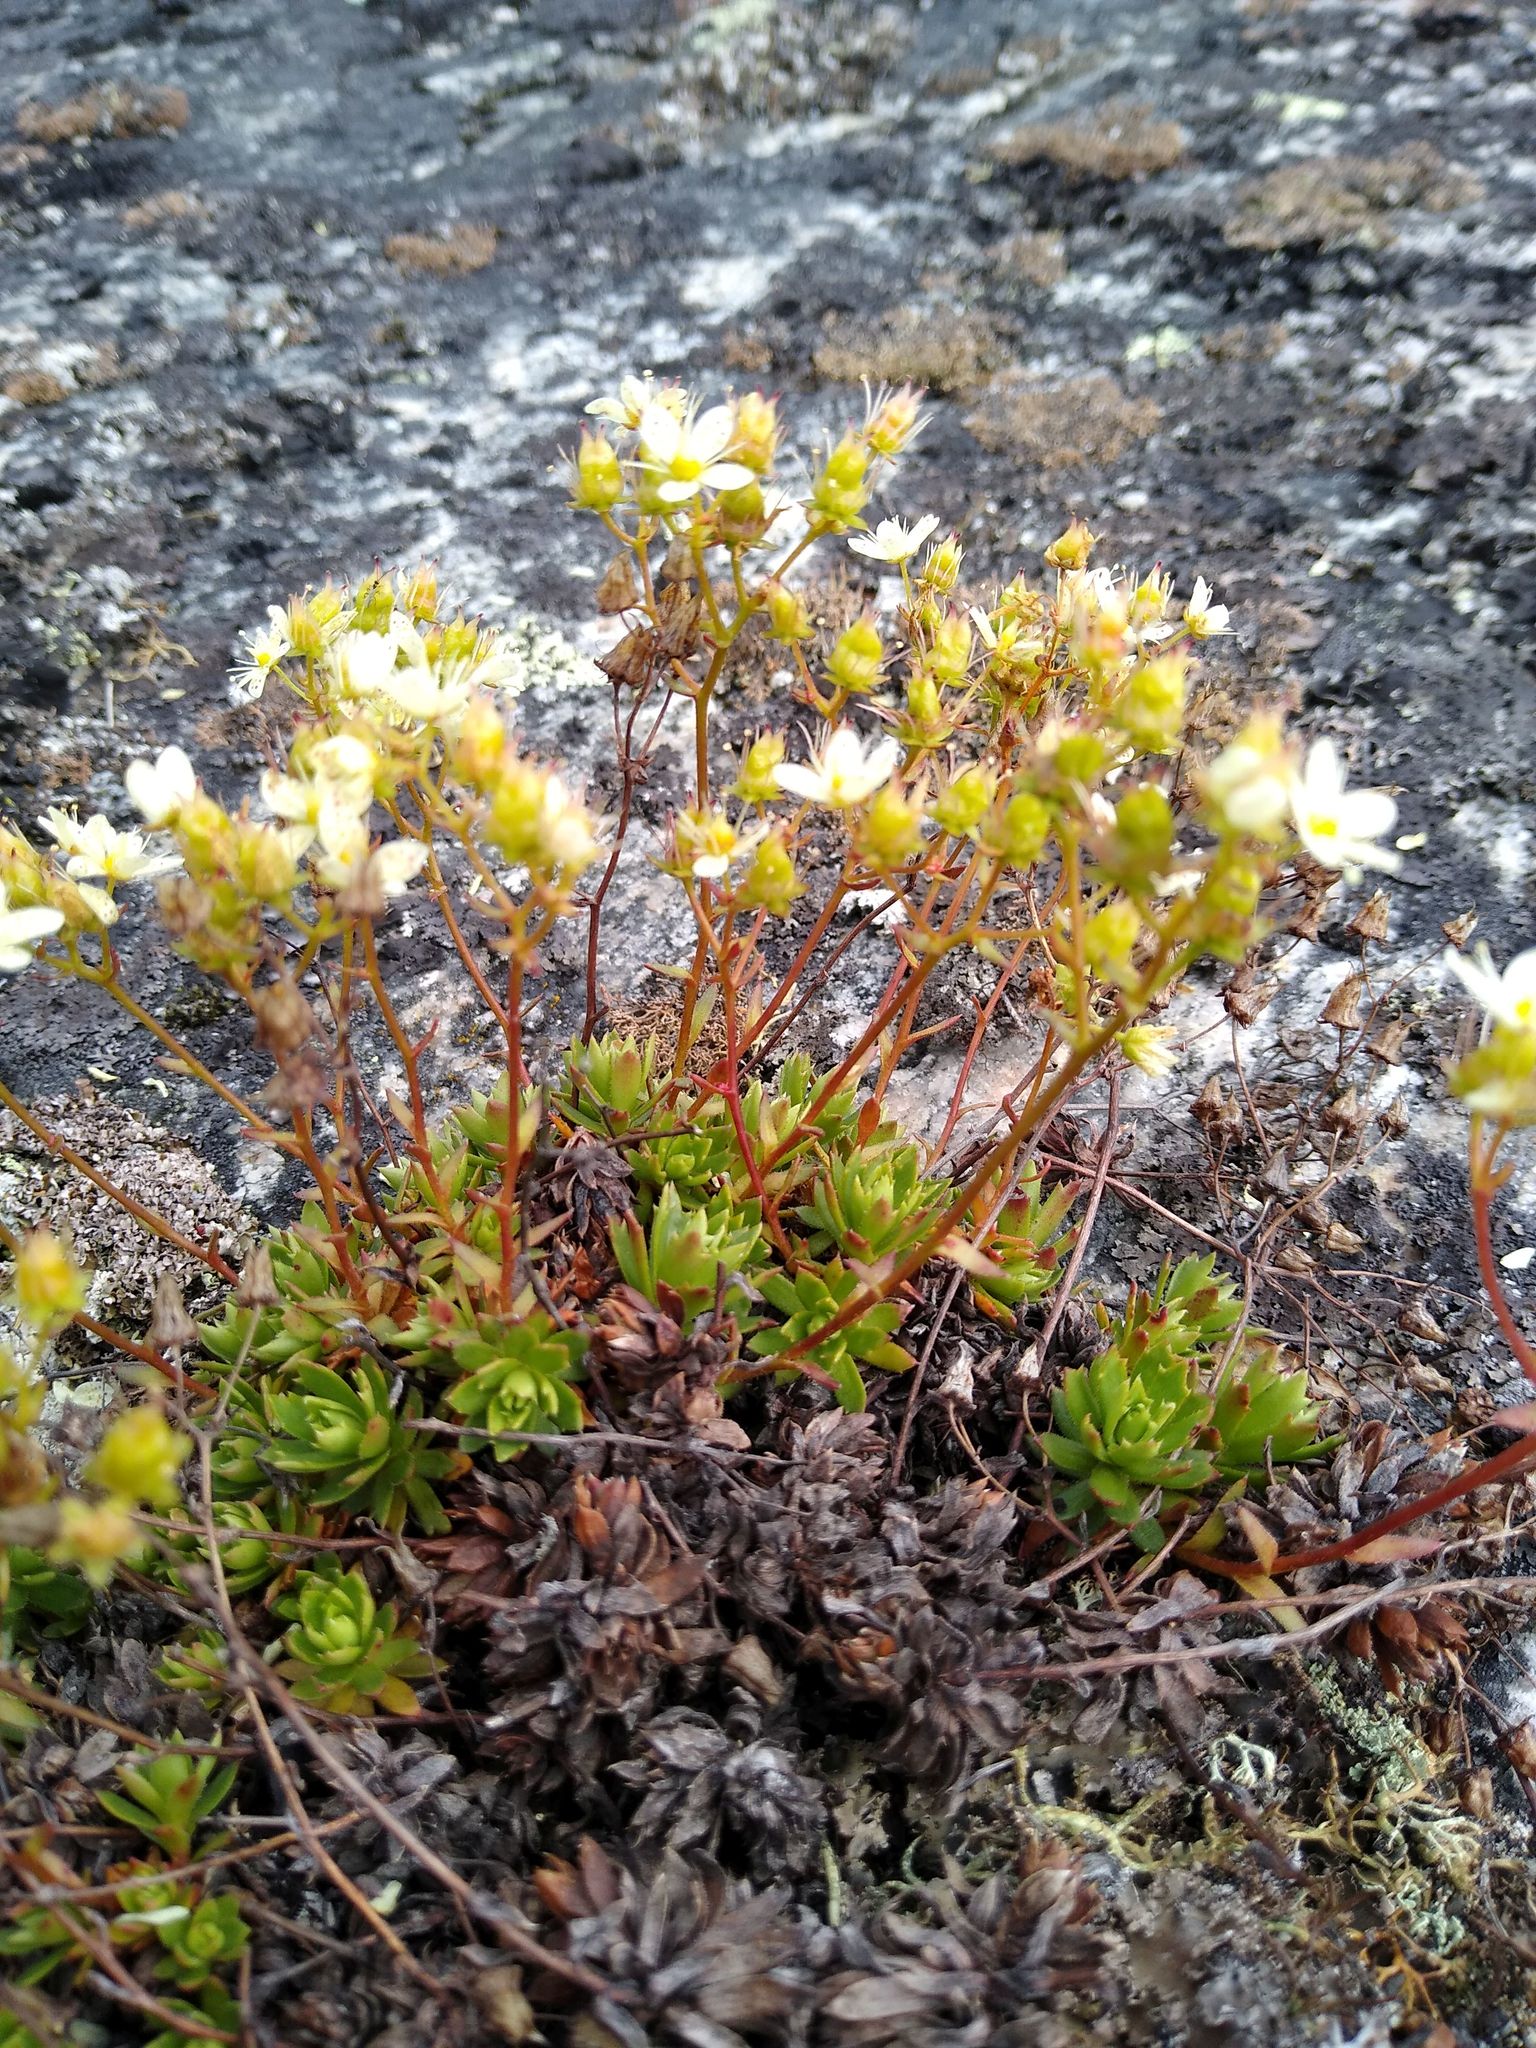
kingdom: Plantae
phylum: Tracheophyta
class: Magnoliopsida
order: Saxifragales
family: Saxifragaceae
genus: Saxifraga
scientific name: Saxifraga tricuspidata
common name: Prickly saxifrage
